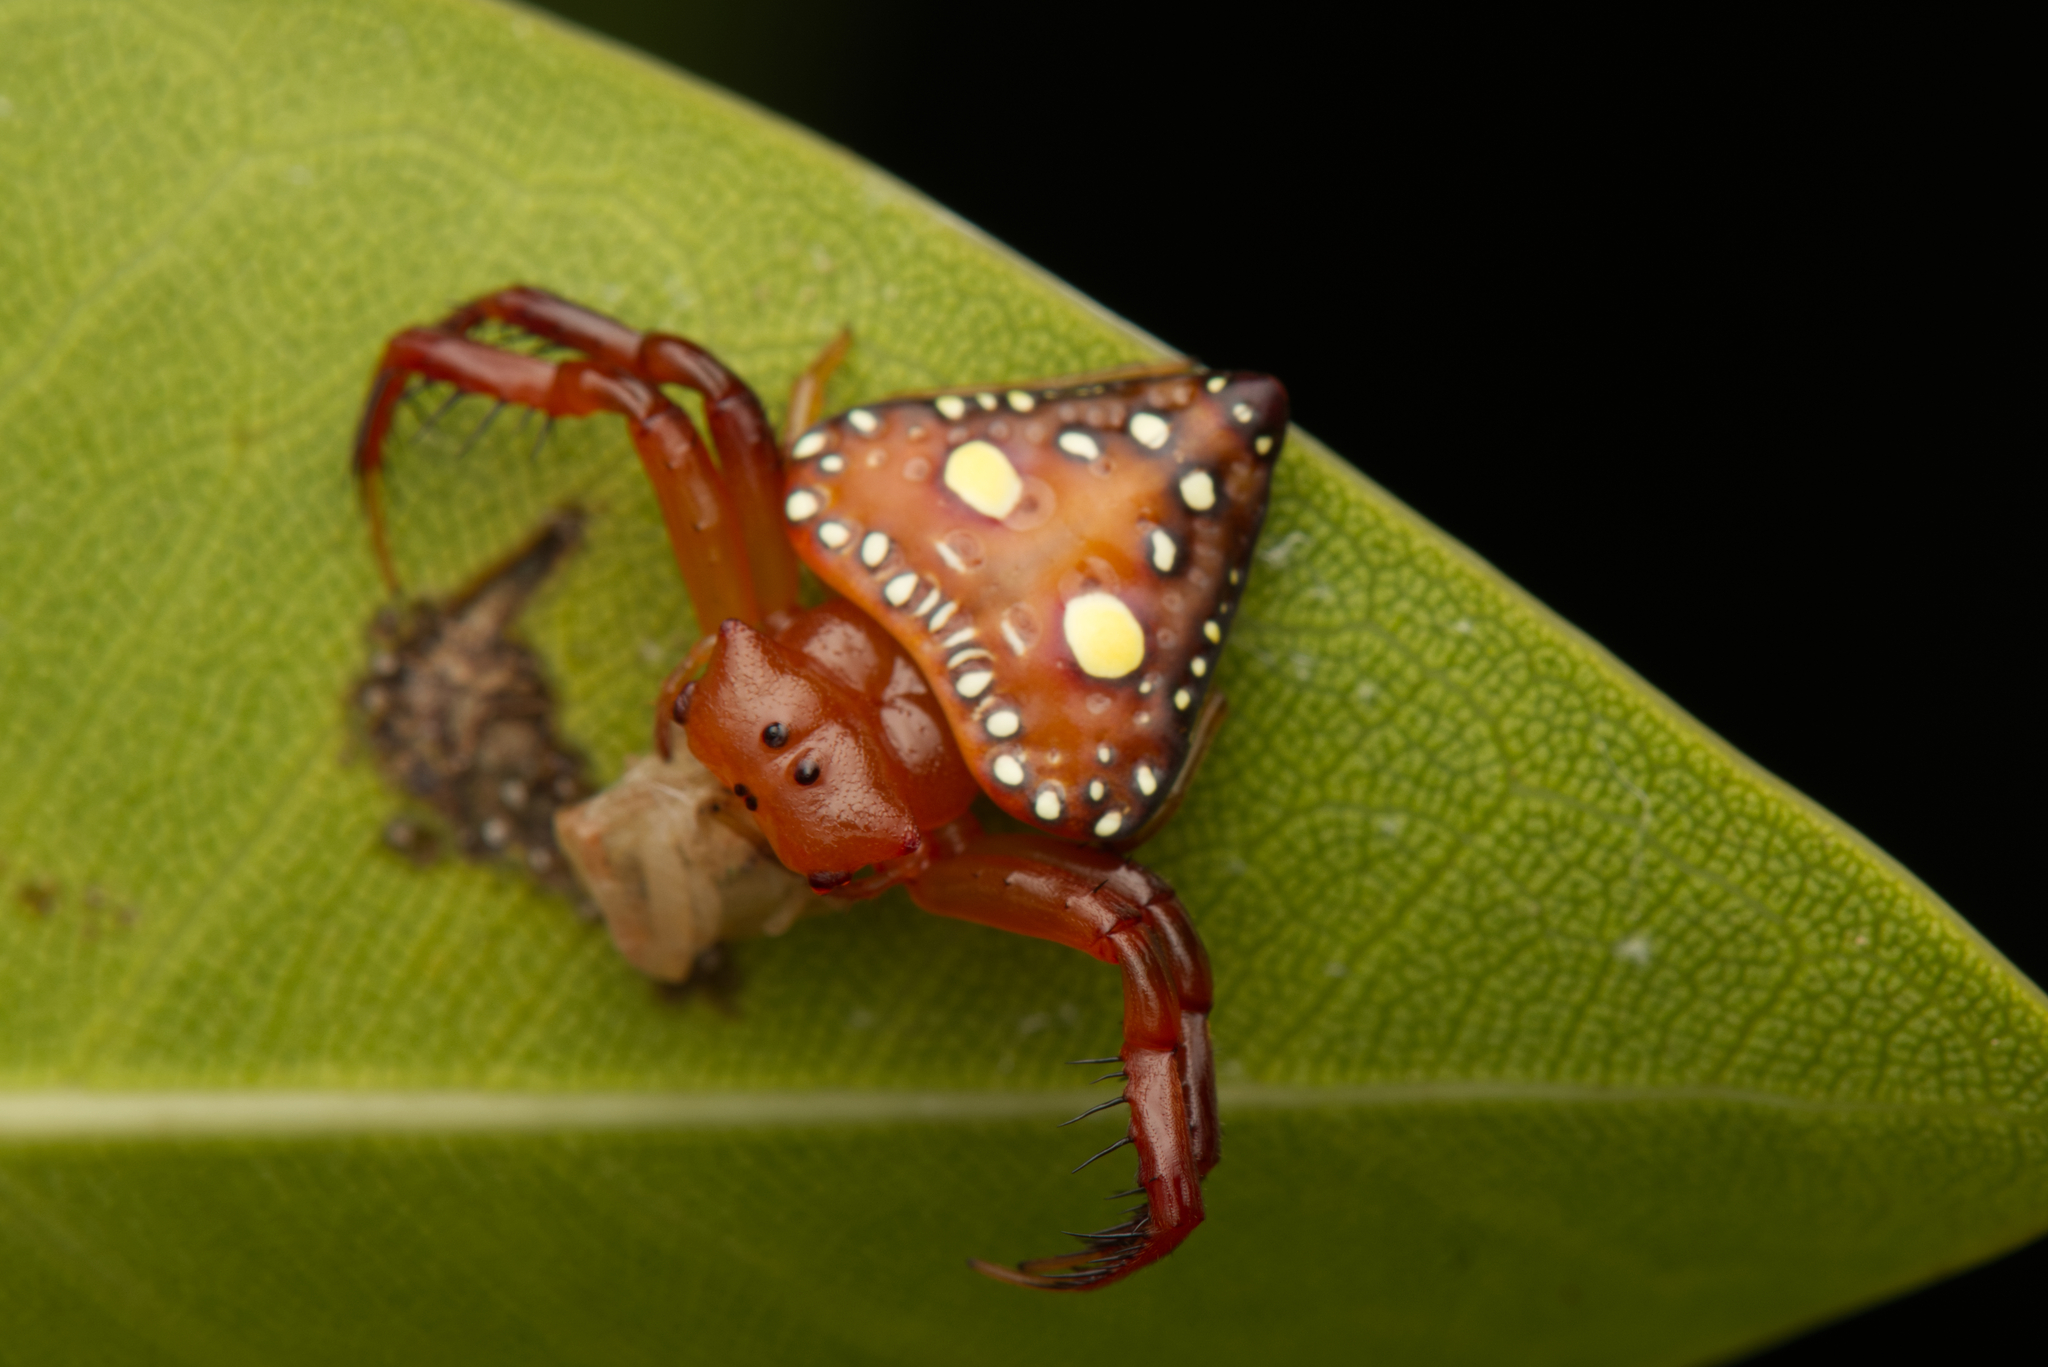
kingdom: Animalia
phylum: Arthropoda
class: Arachnida
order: Araneae
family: Arkyidae
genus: Arkys
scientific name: Arkys lancearius
